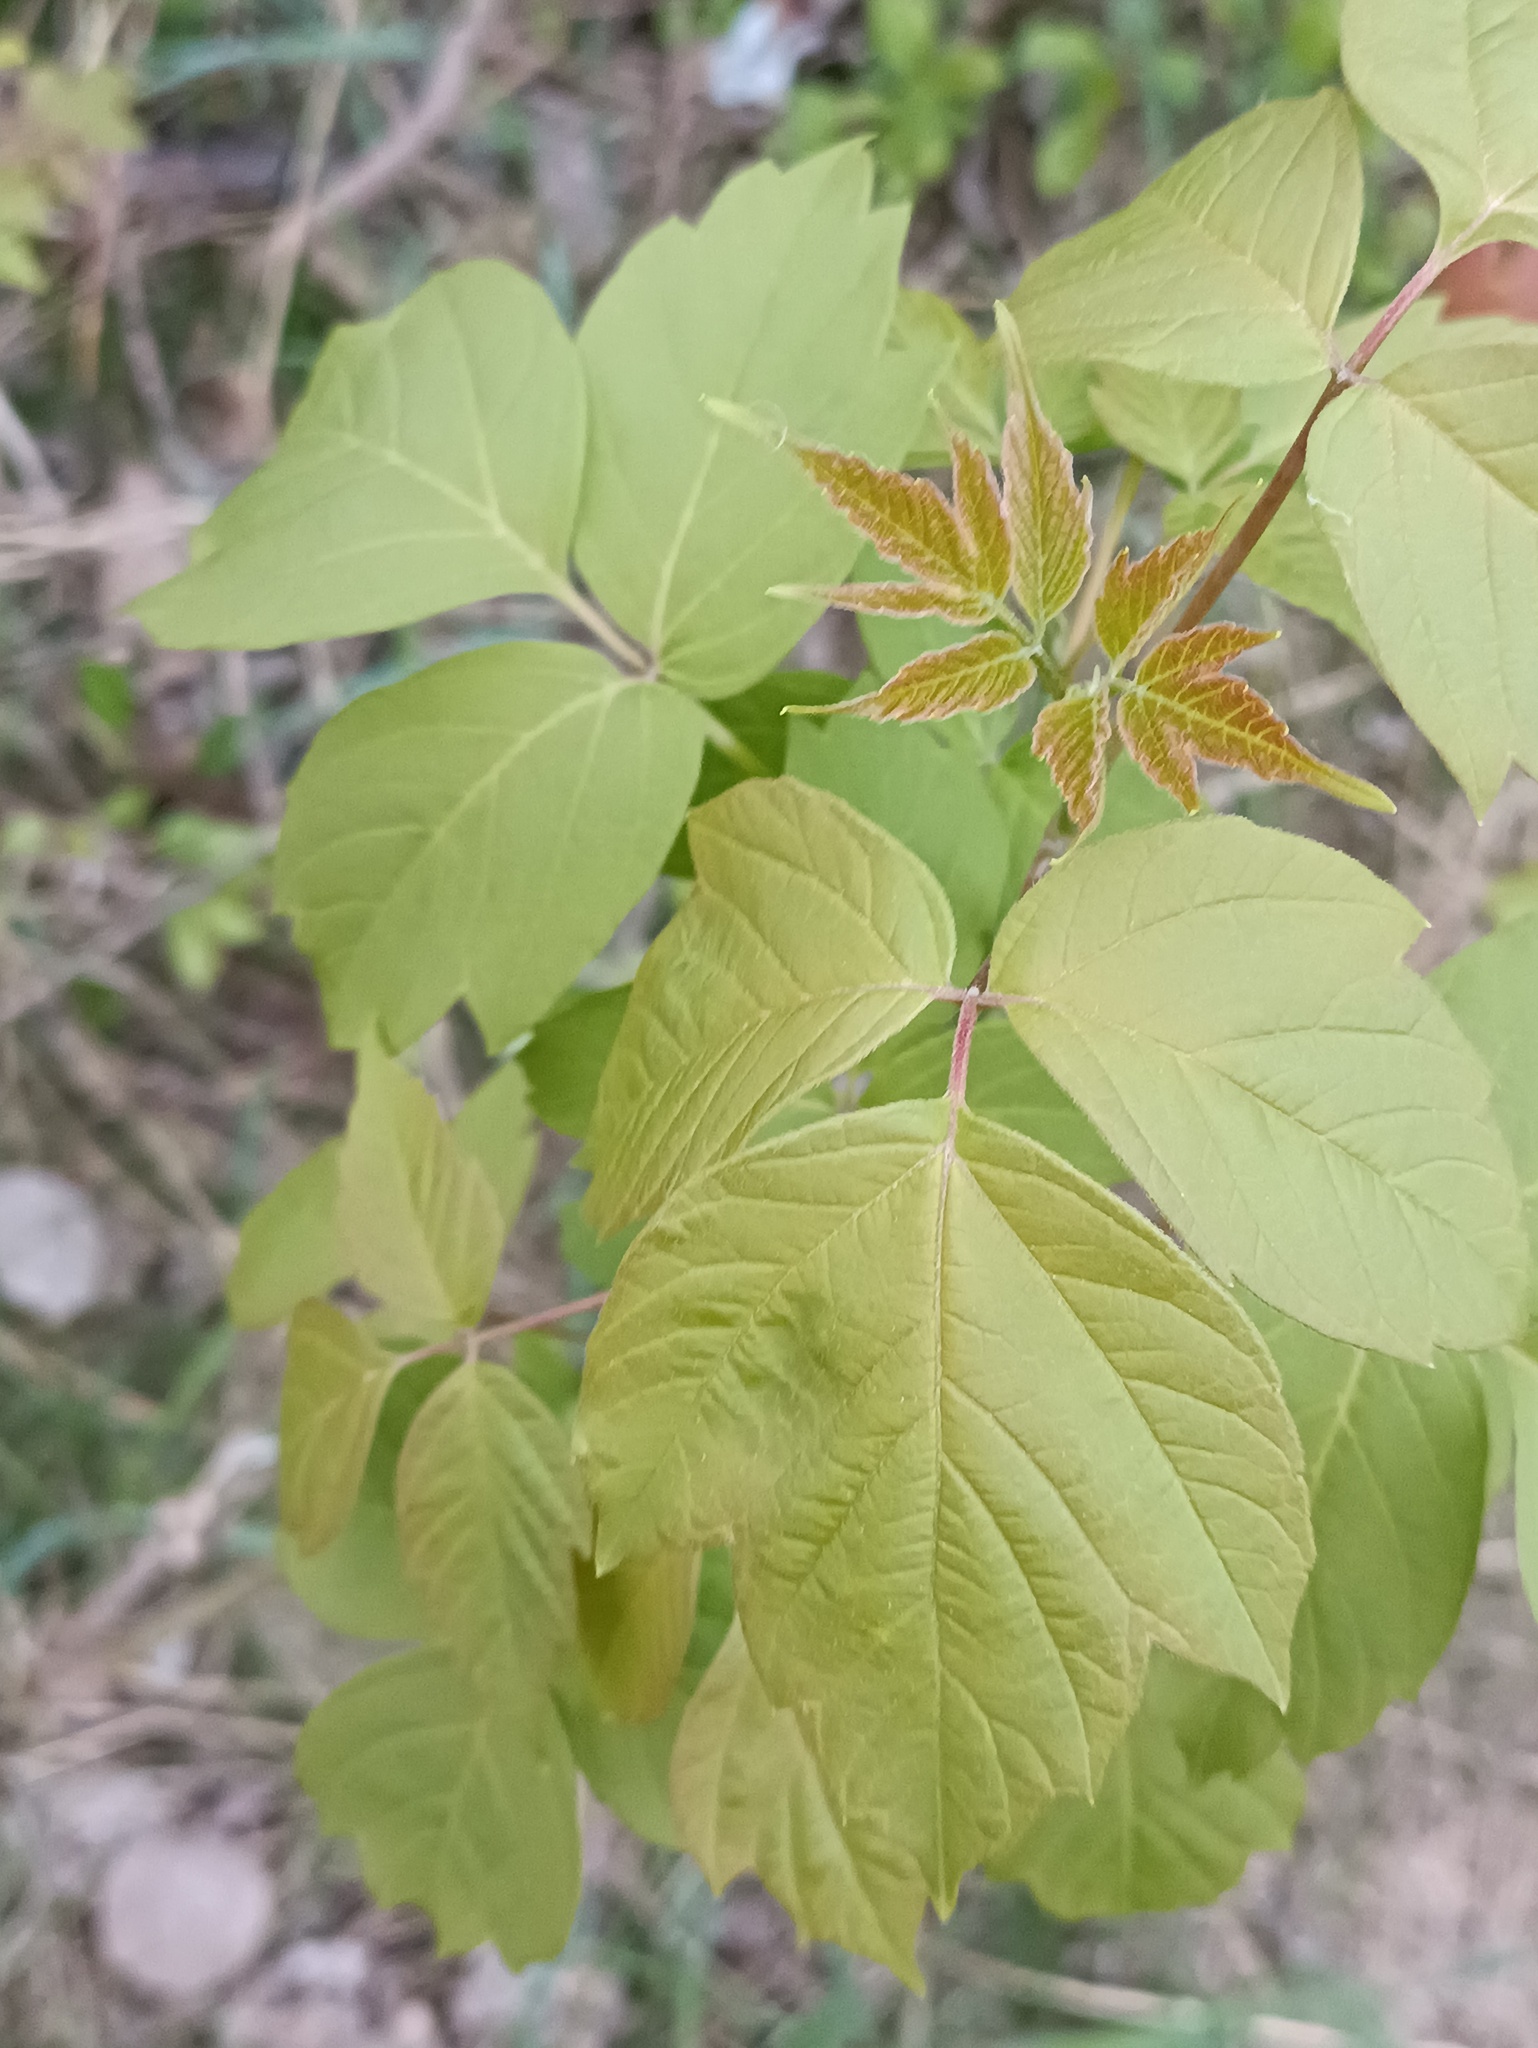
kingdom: Plantae
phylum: Tracheophyta
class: Magnoliopsida
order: Sapindales
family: Sapindaceae
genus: Acer
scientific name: Acer negundo
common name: Ashleaf maple
